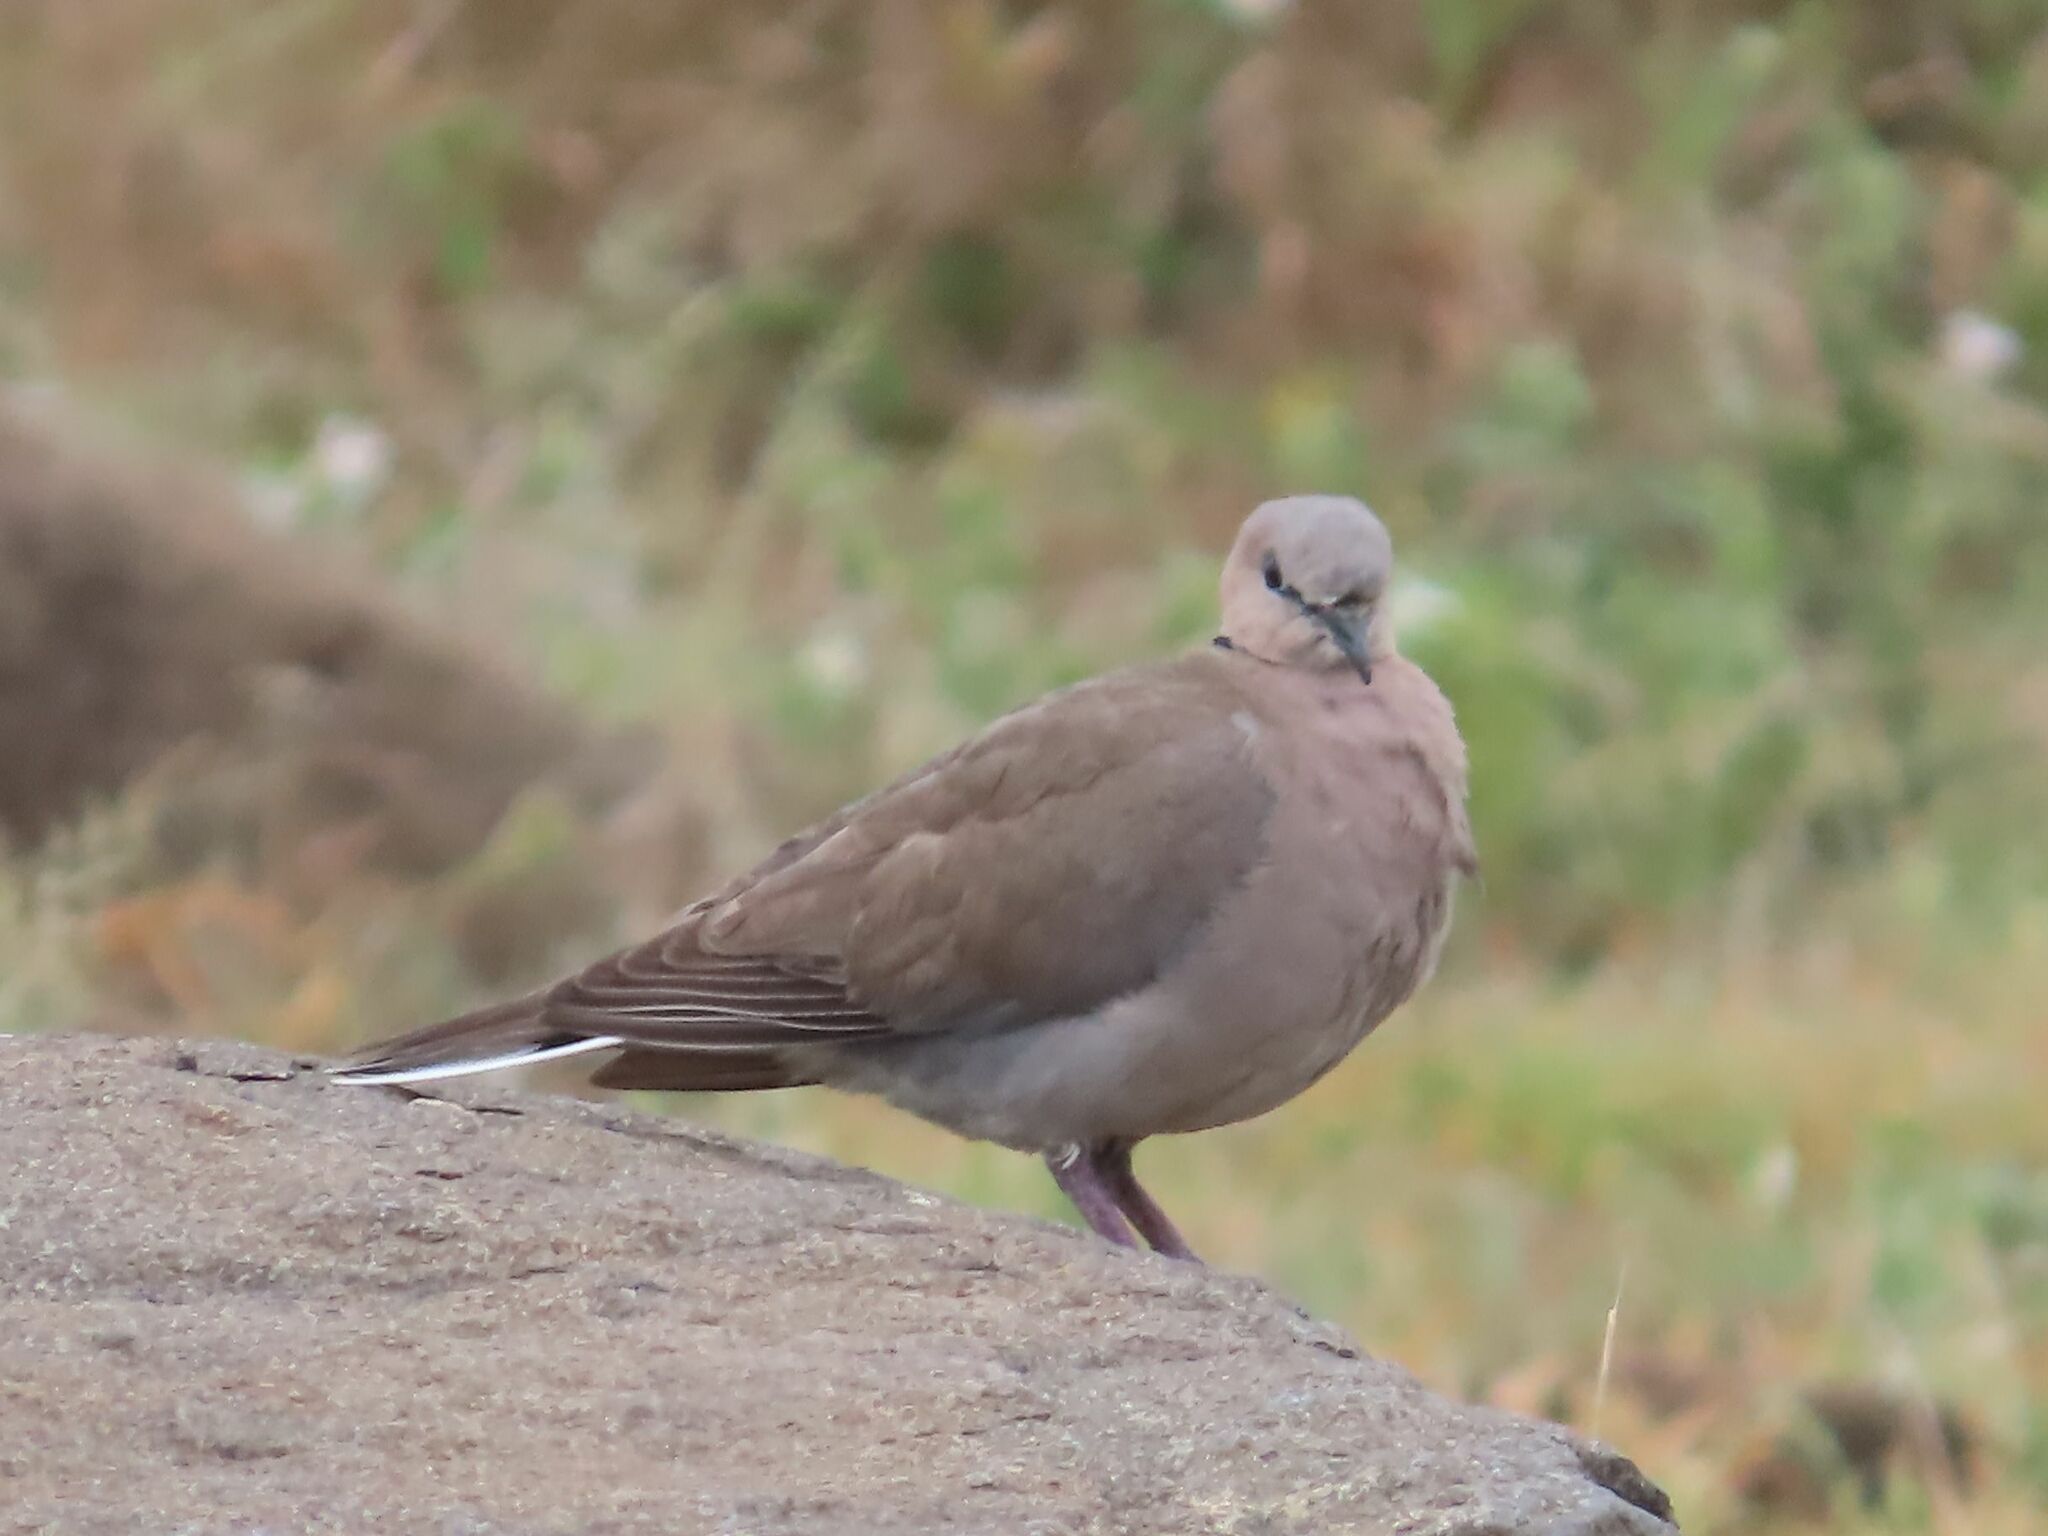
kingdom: Animalia
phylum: Chordata
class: Aves
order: Columbiformes
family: Columbidae
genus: Streptopelia
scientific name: Streptopelia capicola
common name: Ring-necked dove
